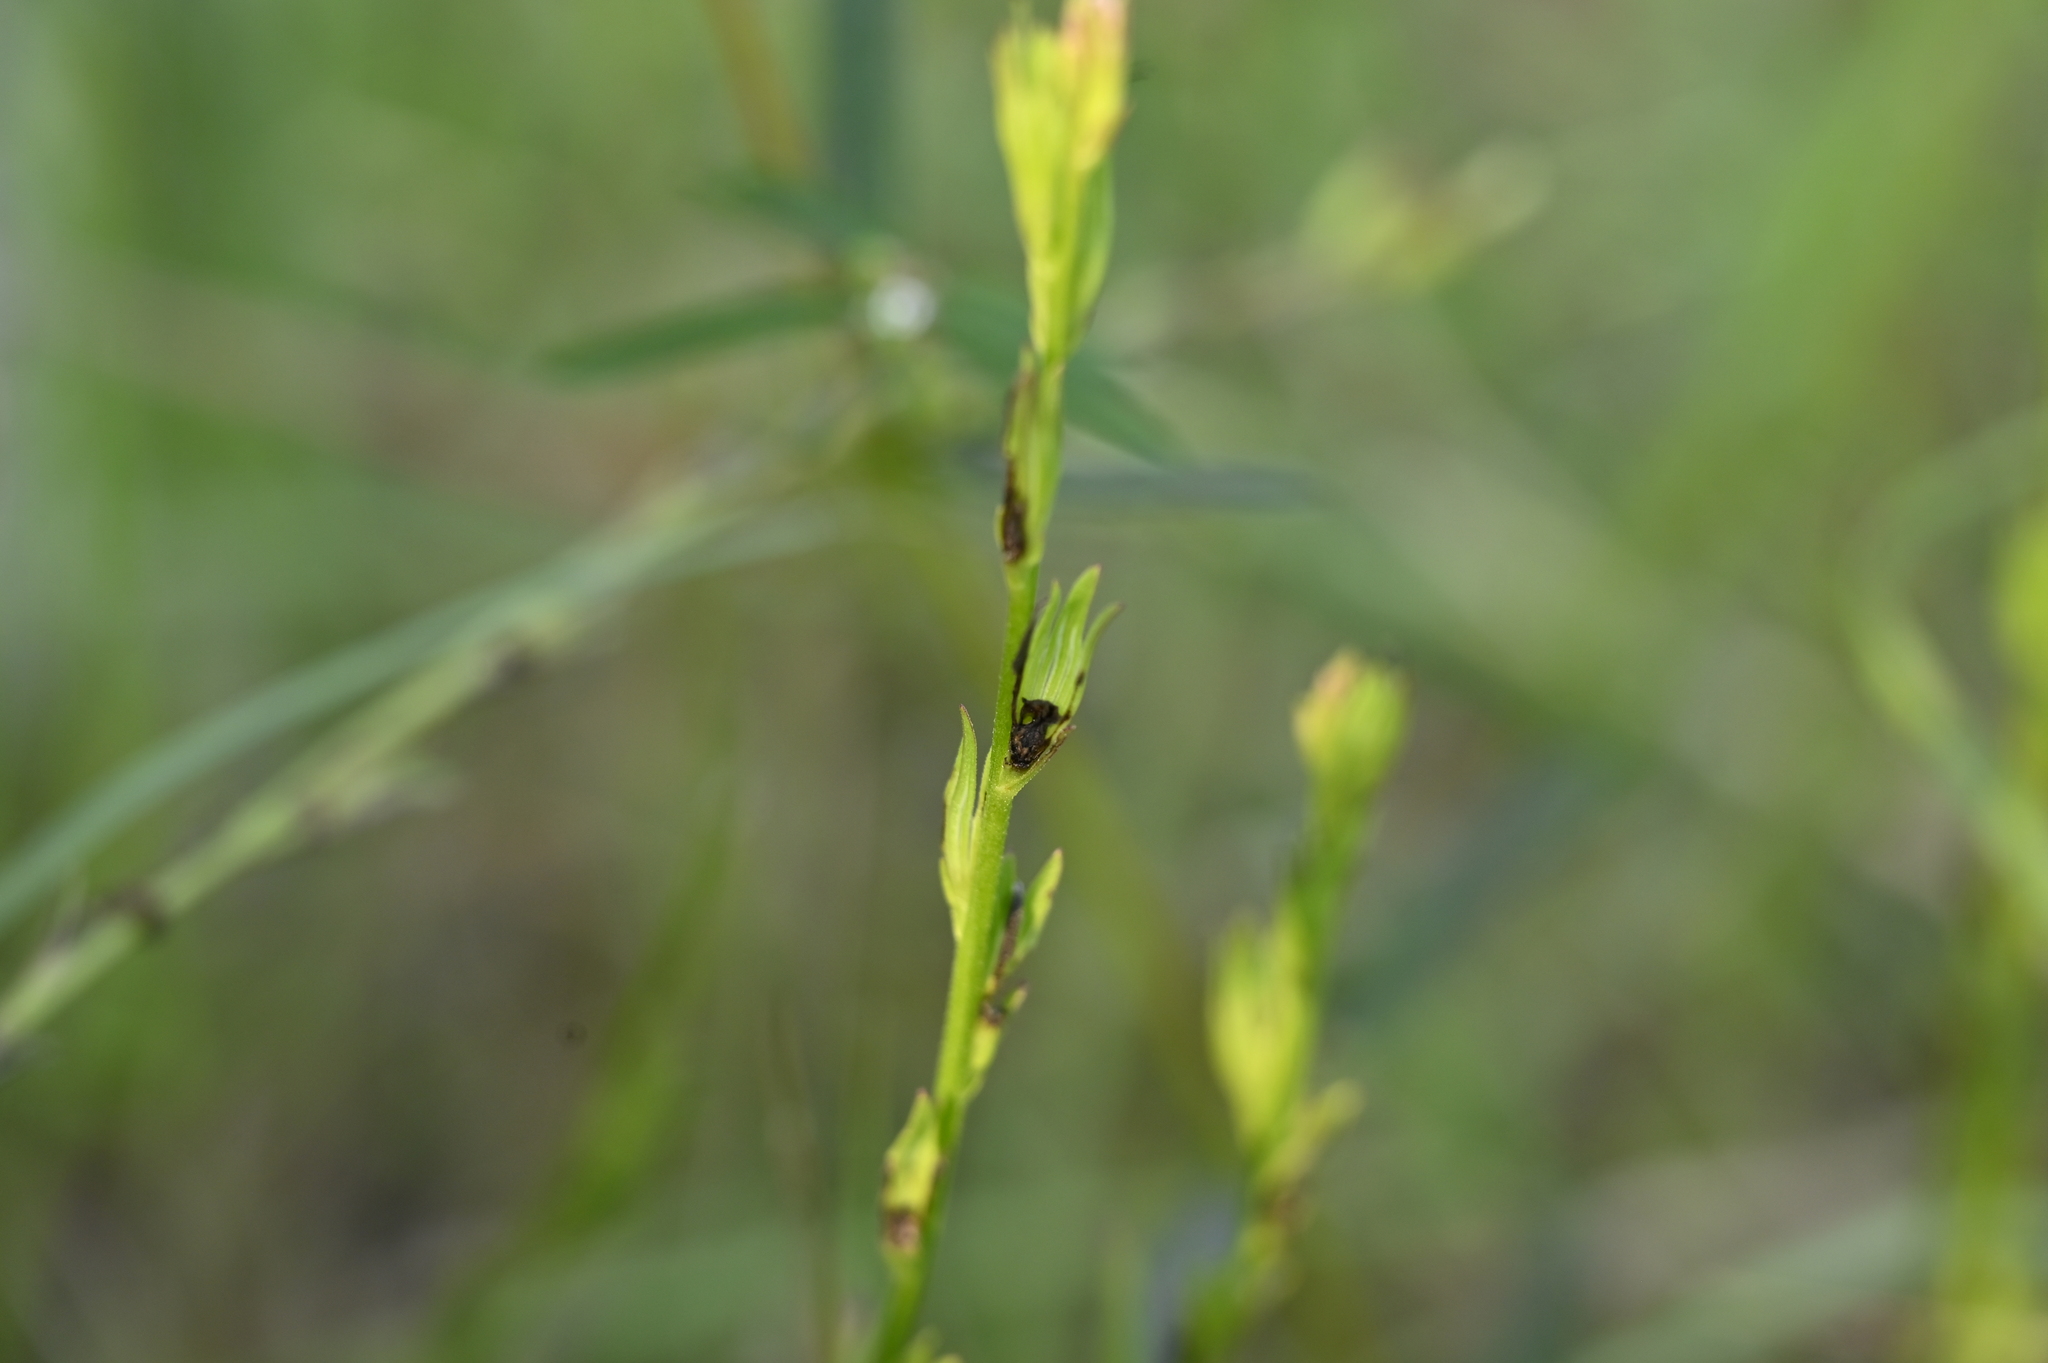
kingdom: Plantae
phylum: Tracheophyta
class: Magnoliopsida
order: Lamiales
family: Orobanchaceae
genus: Striga
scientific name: Striga masuria
